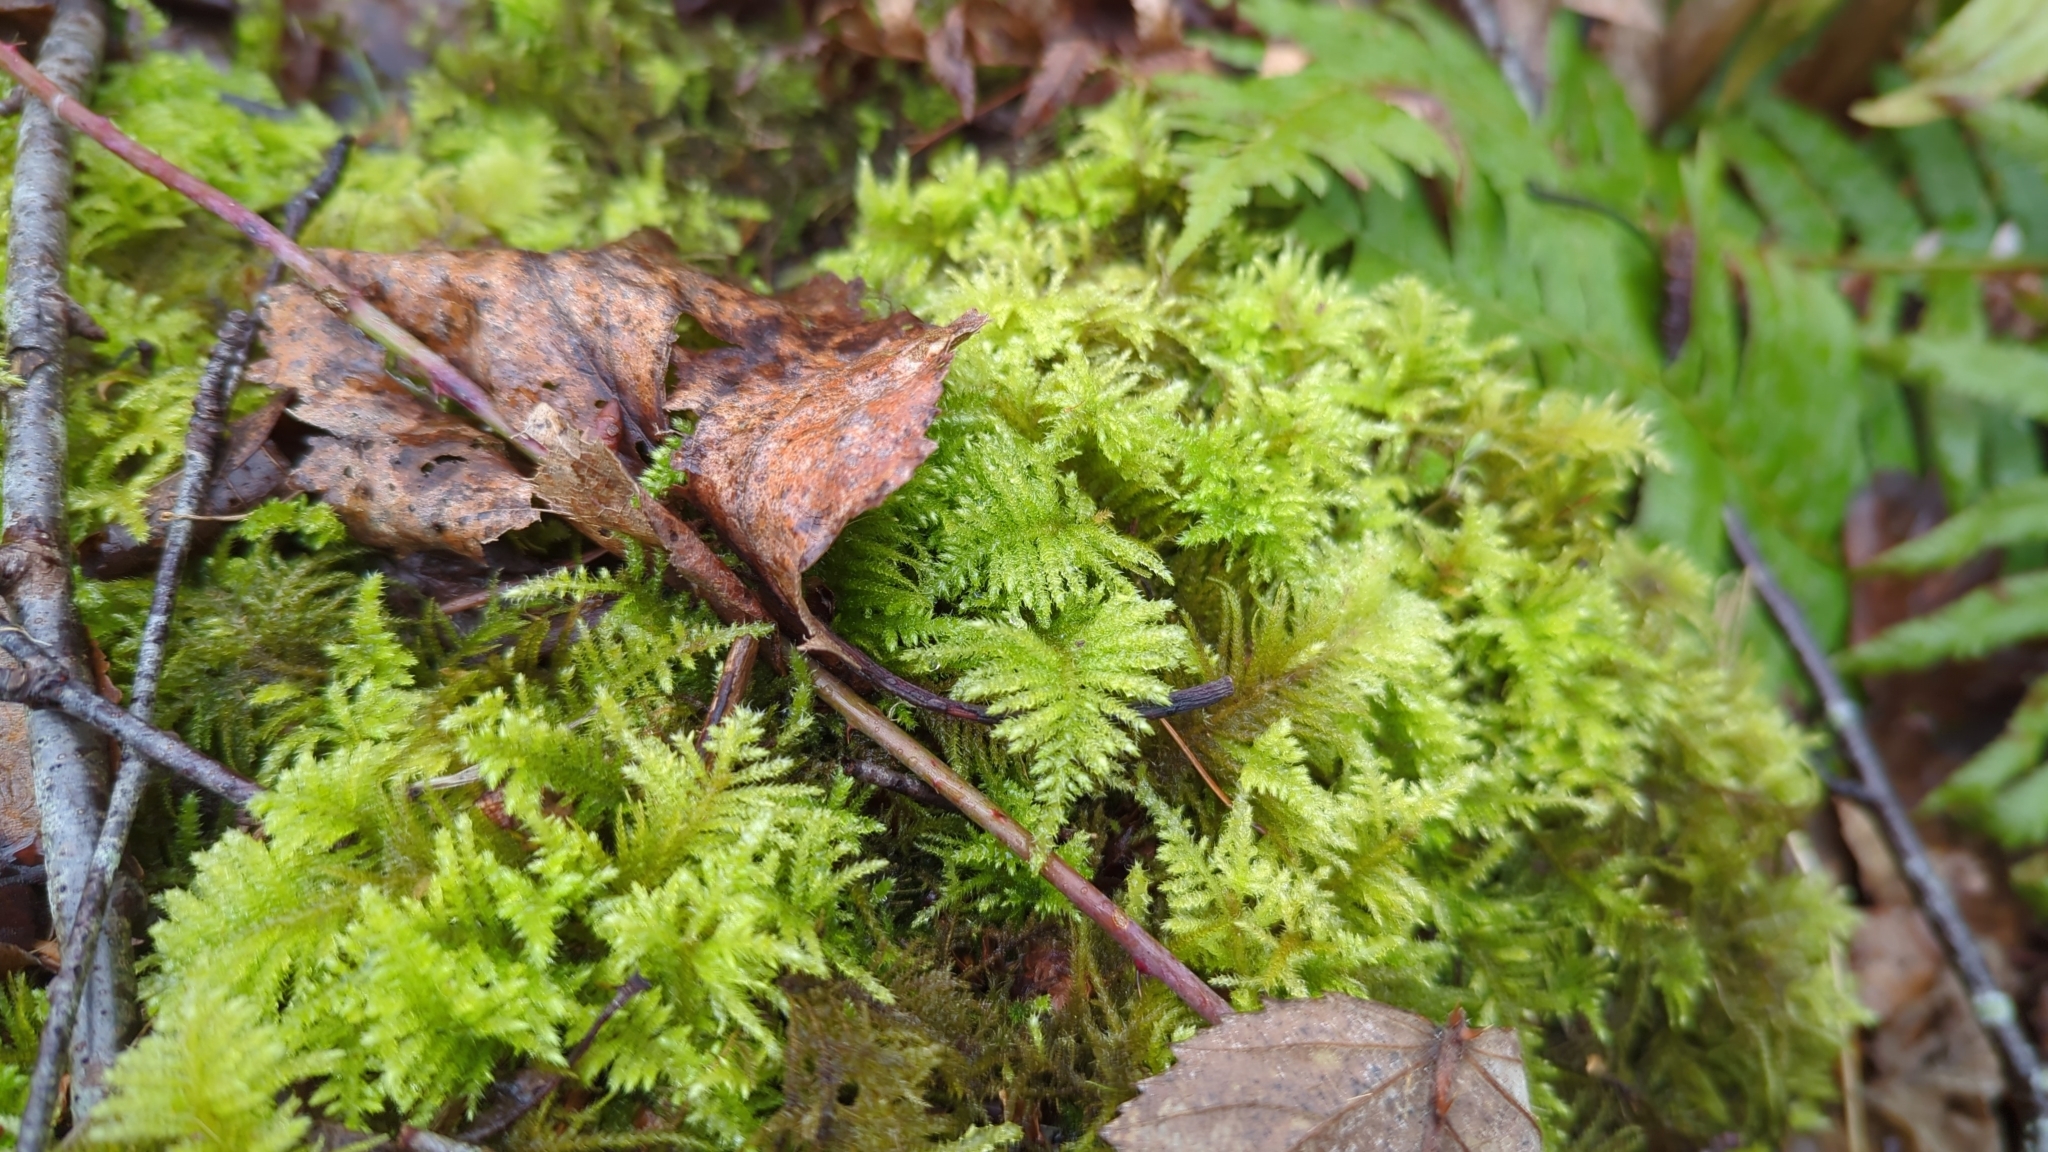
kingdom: Plantae
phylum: Bryophyta
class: Bryopsida
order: Hypnales
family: Brachytheciaceae
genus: Kindbergia
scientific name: Kindbergia oregana
